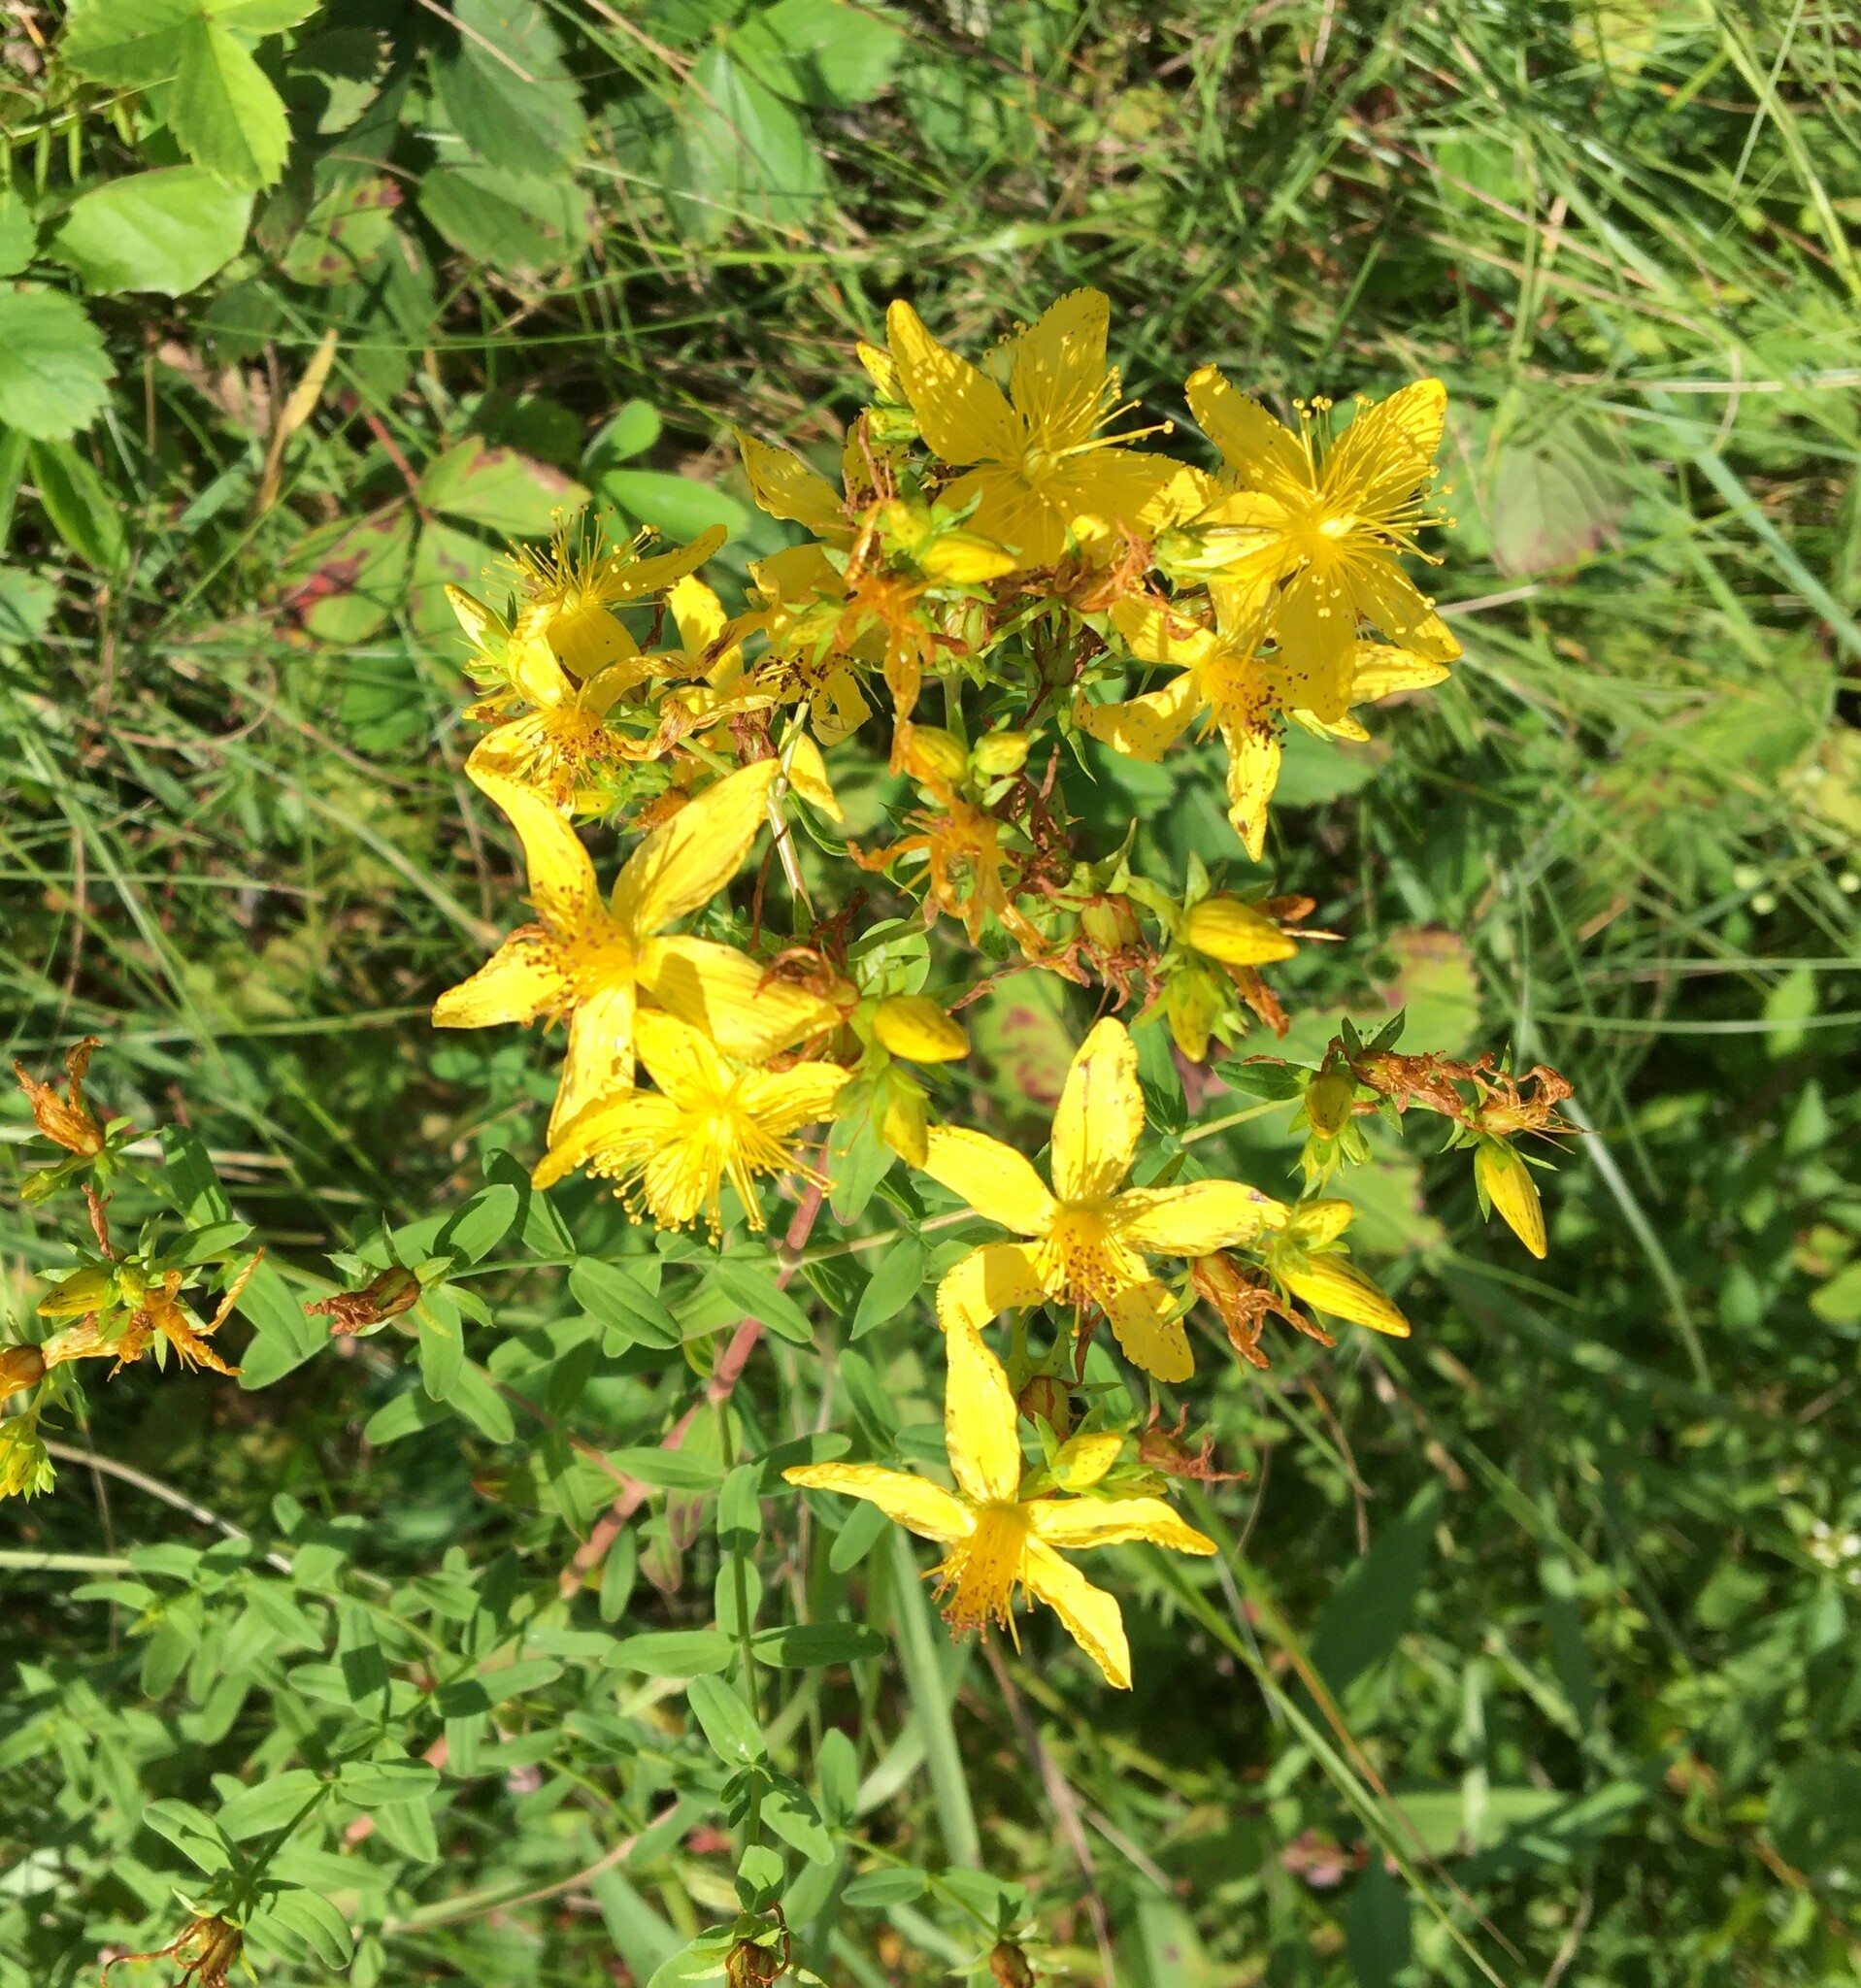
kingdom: Plantae
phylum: Tracheophyta
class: Magnoliopsida
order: Malpighiales
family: Hypericaceae
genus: Hypericum
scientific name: Hypericum perforatum
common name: Common st. johnswort
